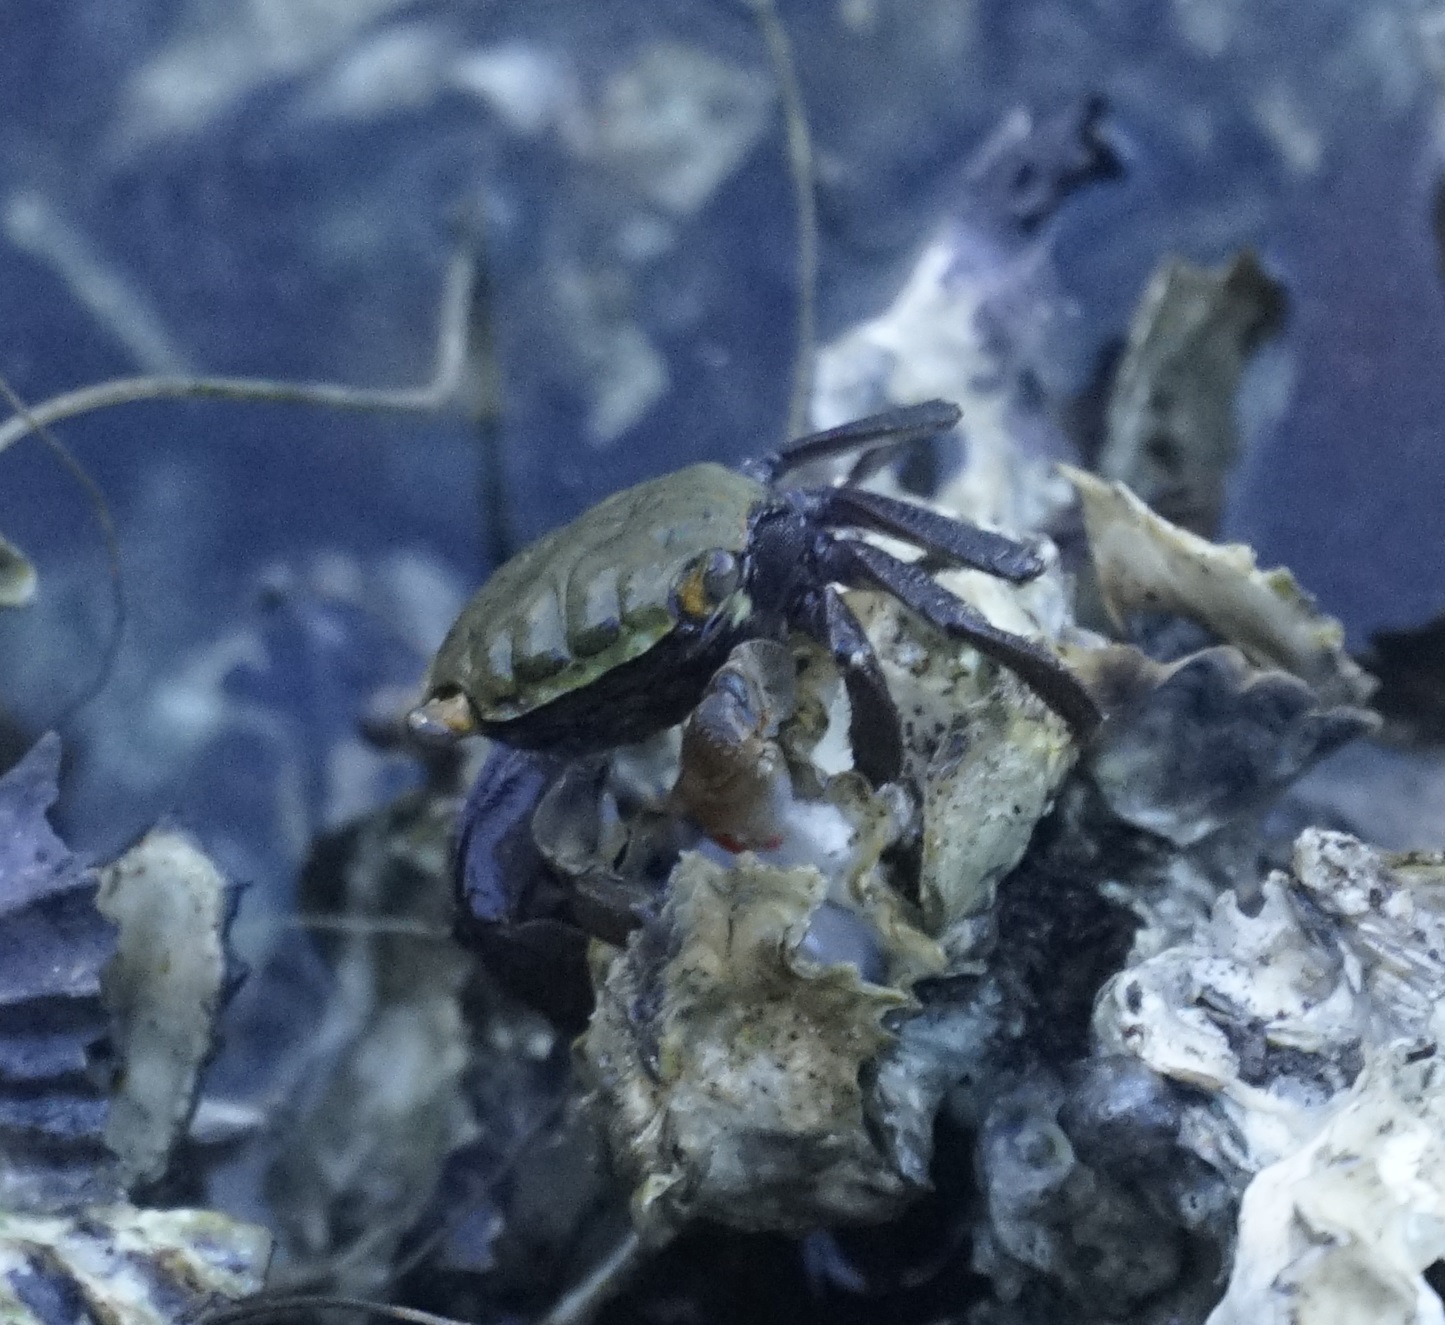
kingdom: Animalia
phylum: Arthropoda
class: Malacostraca
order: Decapoda
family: Sesarmidae
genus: Parasesarma
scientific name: Parasesarma erythodactylum
